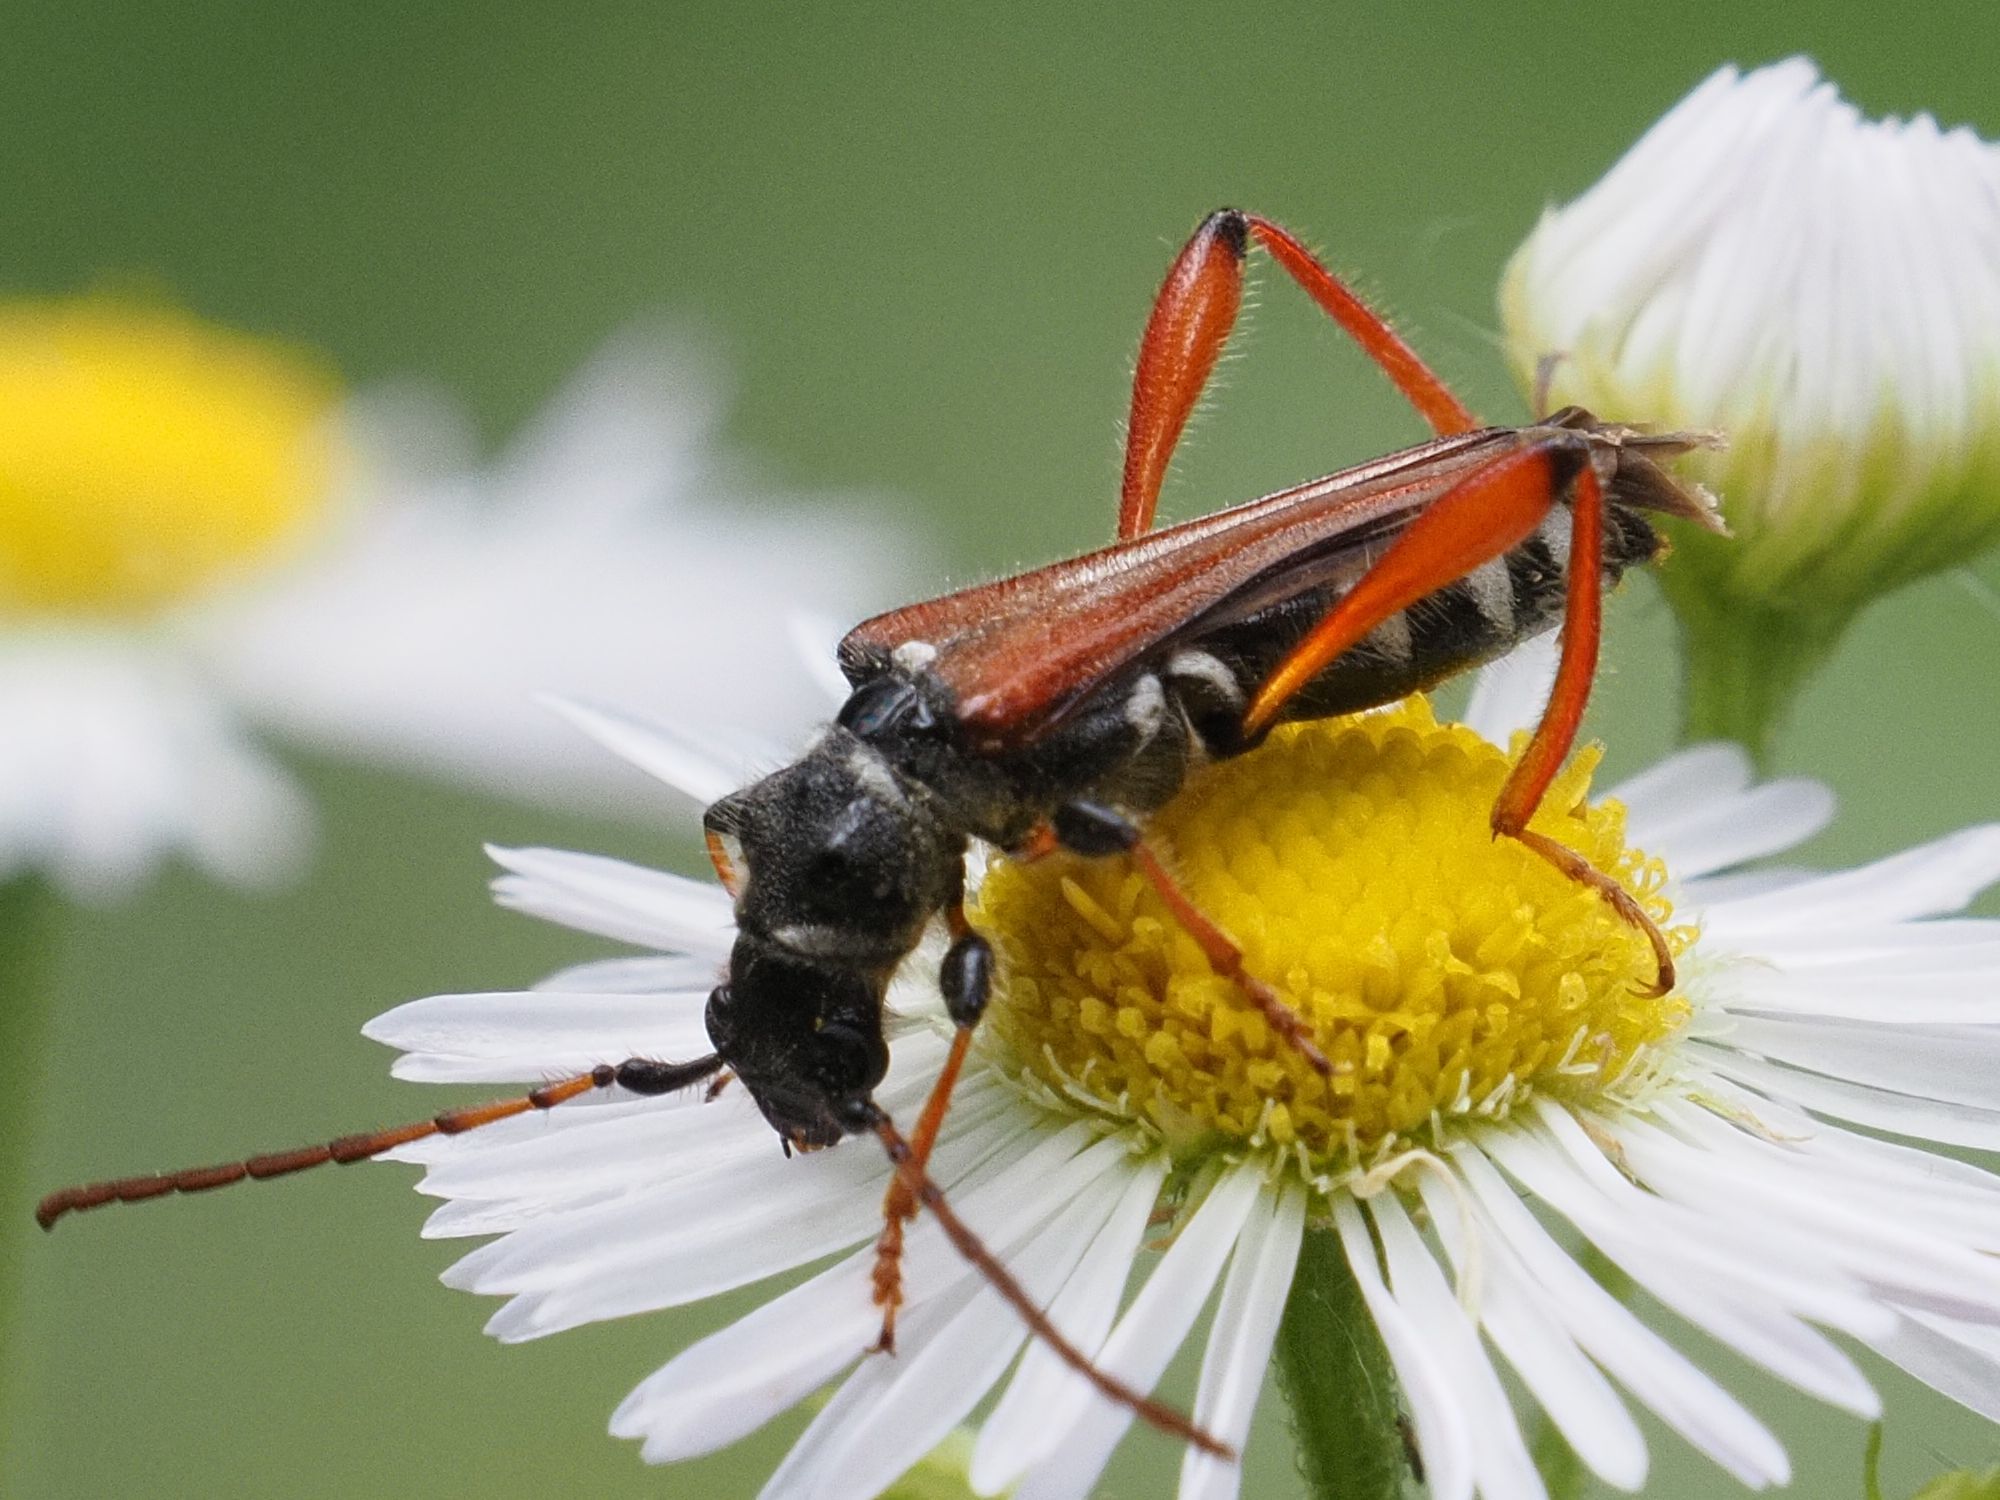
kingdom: Animalia
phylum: Arthropoda
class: Insecta
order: Coleoptera
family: Cerambycidae
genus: Stenopterus
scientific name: Stenopterus rufus
